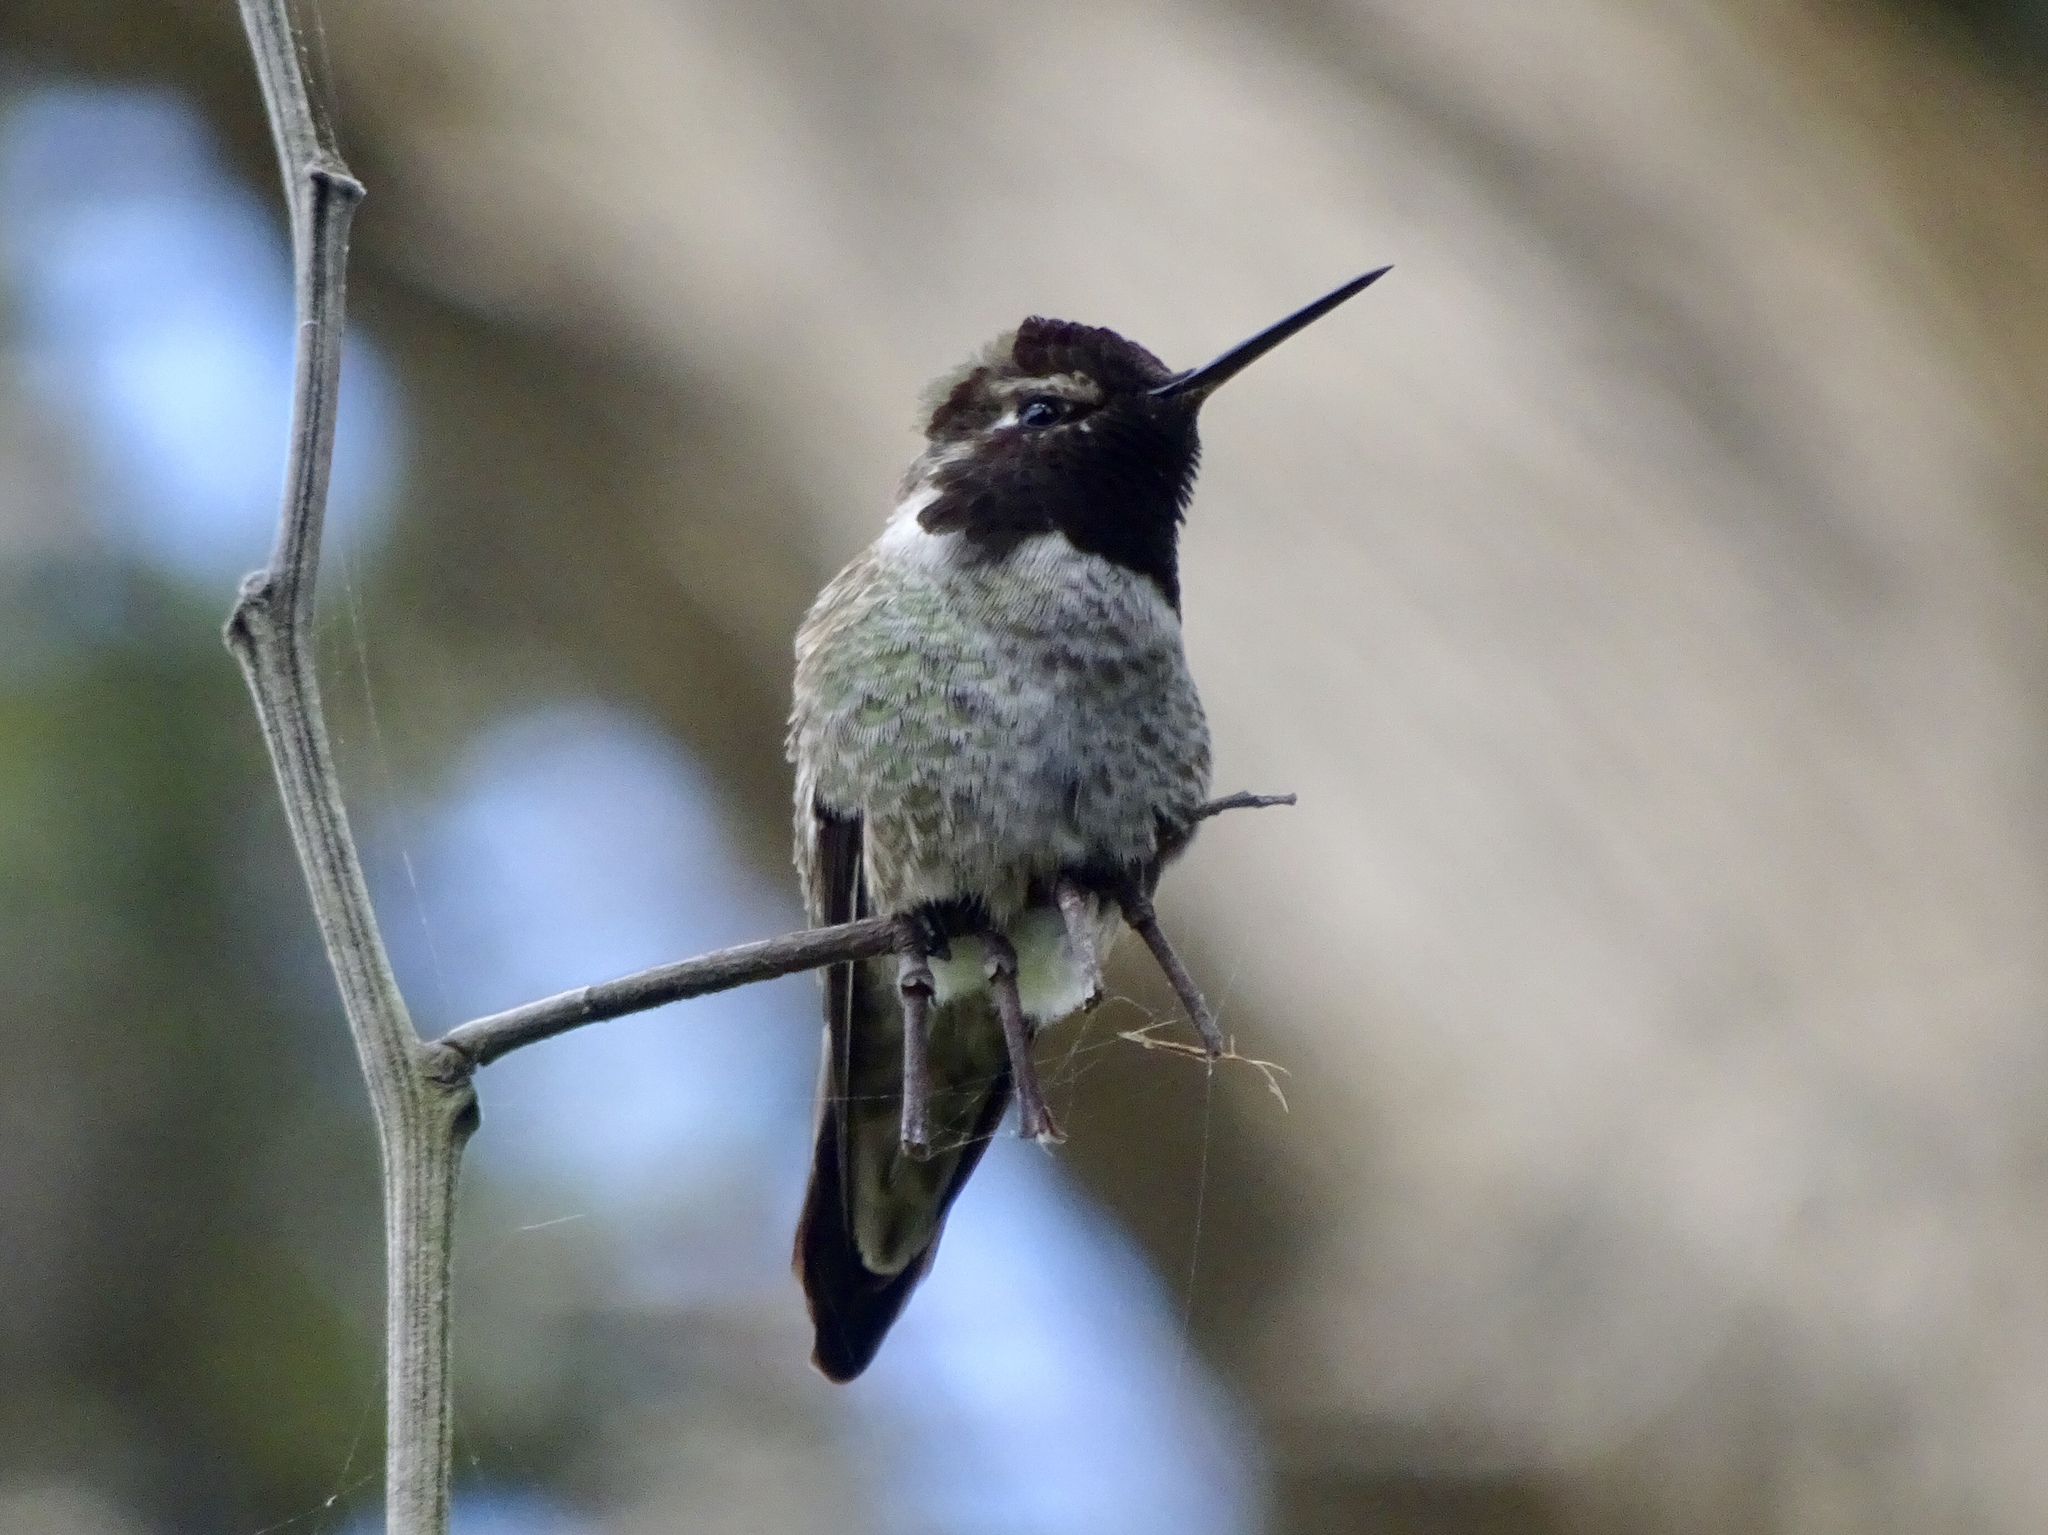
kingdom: Animalia
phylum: Chordata
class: Aves
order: Apodiformes
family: Trochilidae
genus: Calypte
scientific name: Calypte anna
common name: Anna's hummingbird
